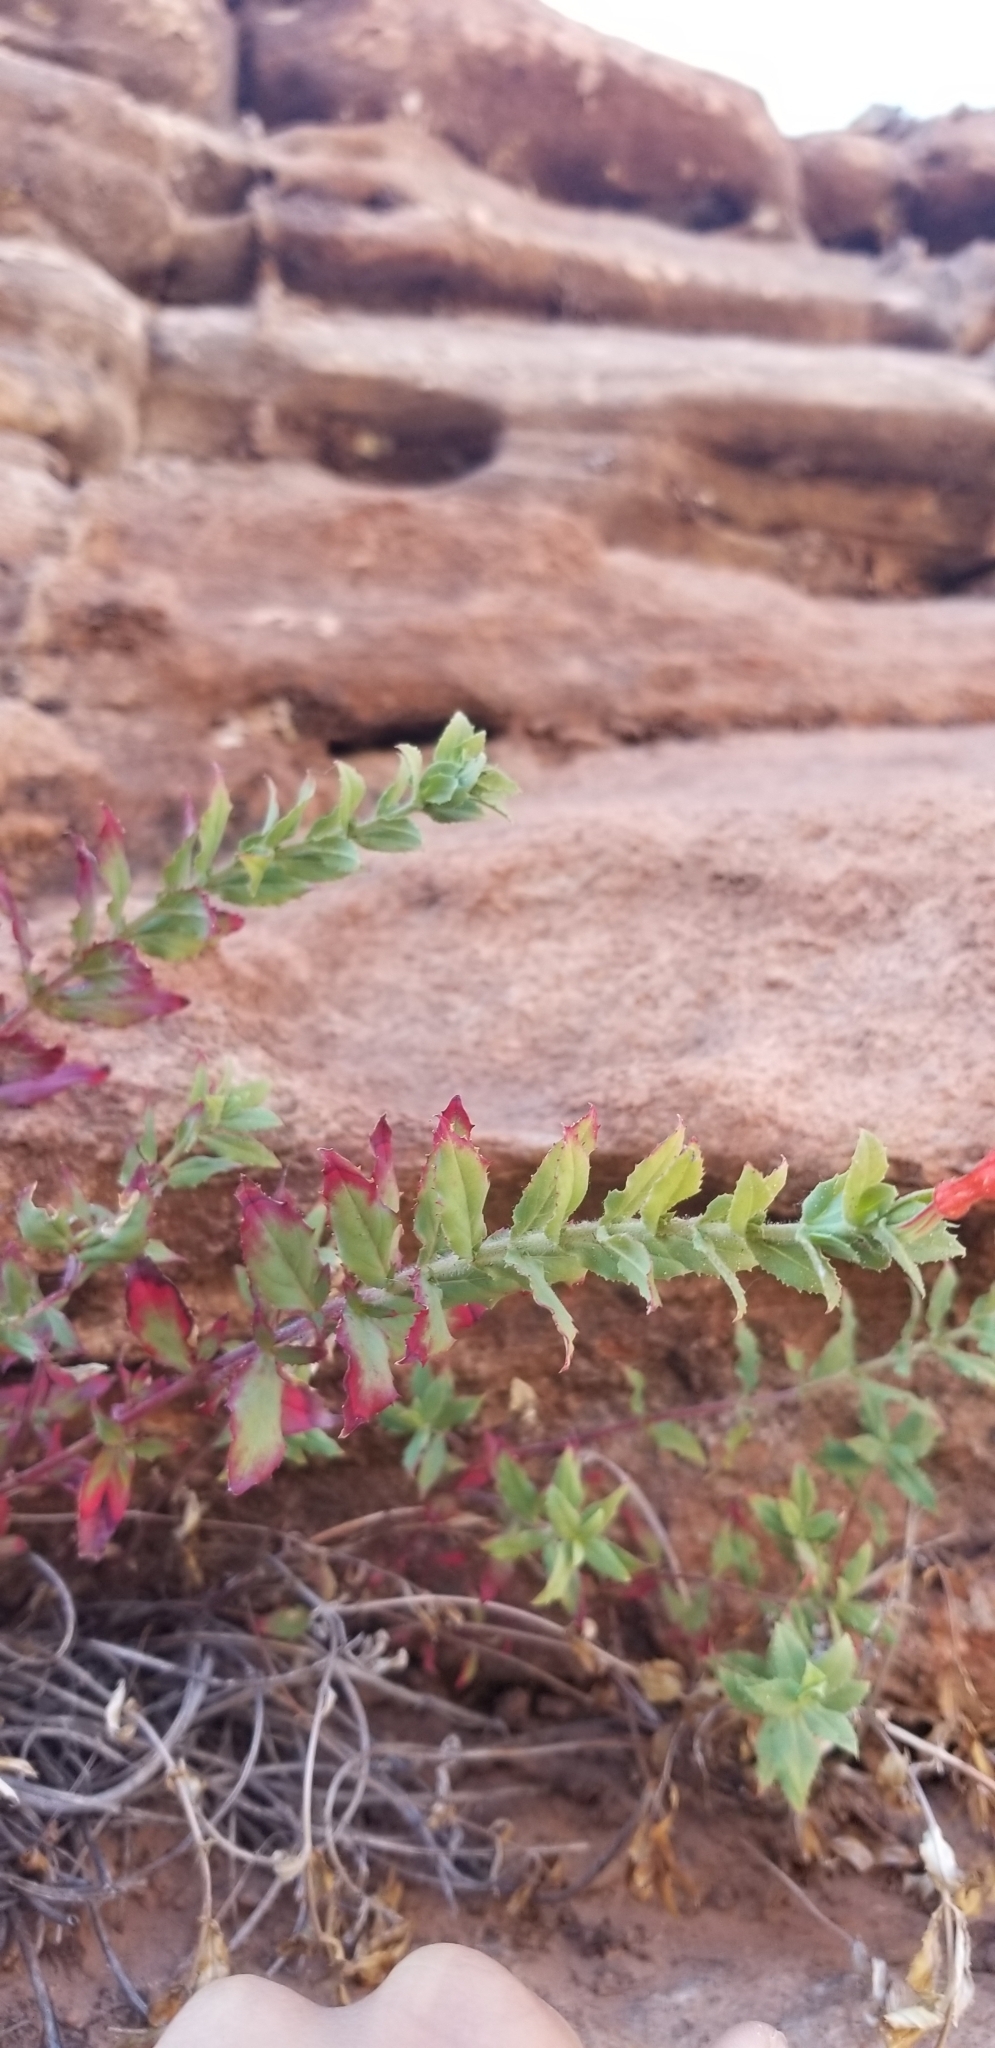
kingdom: Plantae
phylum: Tracheophyta
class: Magnoliopsida
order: Myrtales
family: Onagraceae
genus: Epilobium
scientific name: Epilobium canum
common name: California-fuchsia
